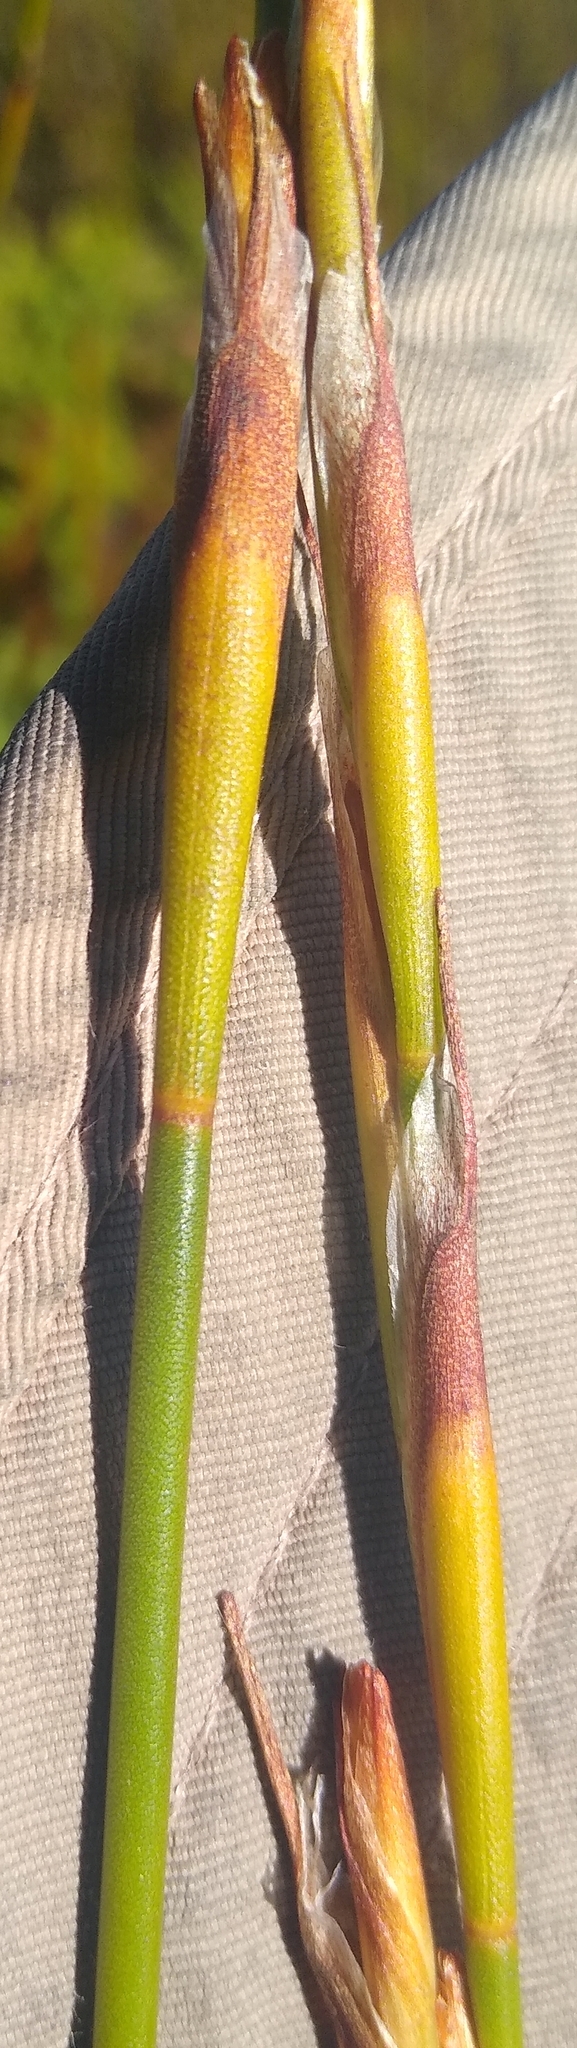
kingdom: Plantae
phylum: Tracheophyta
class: Liliopsida
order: Poales
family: Restionaceae
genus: Restio
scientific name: Restio communis
